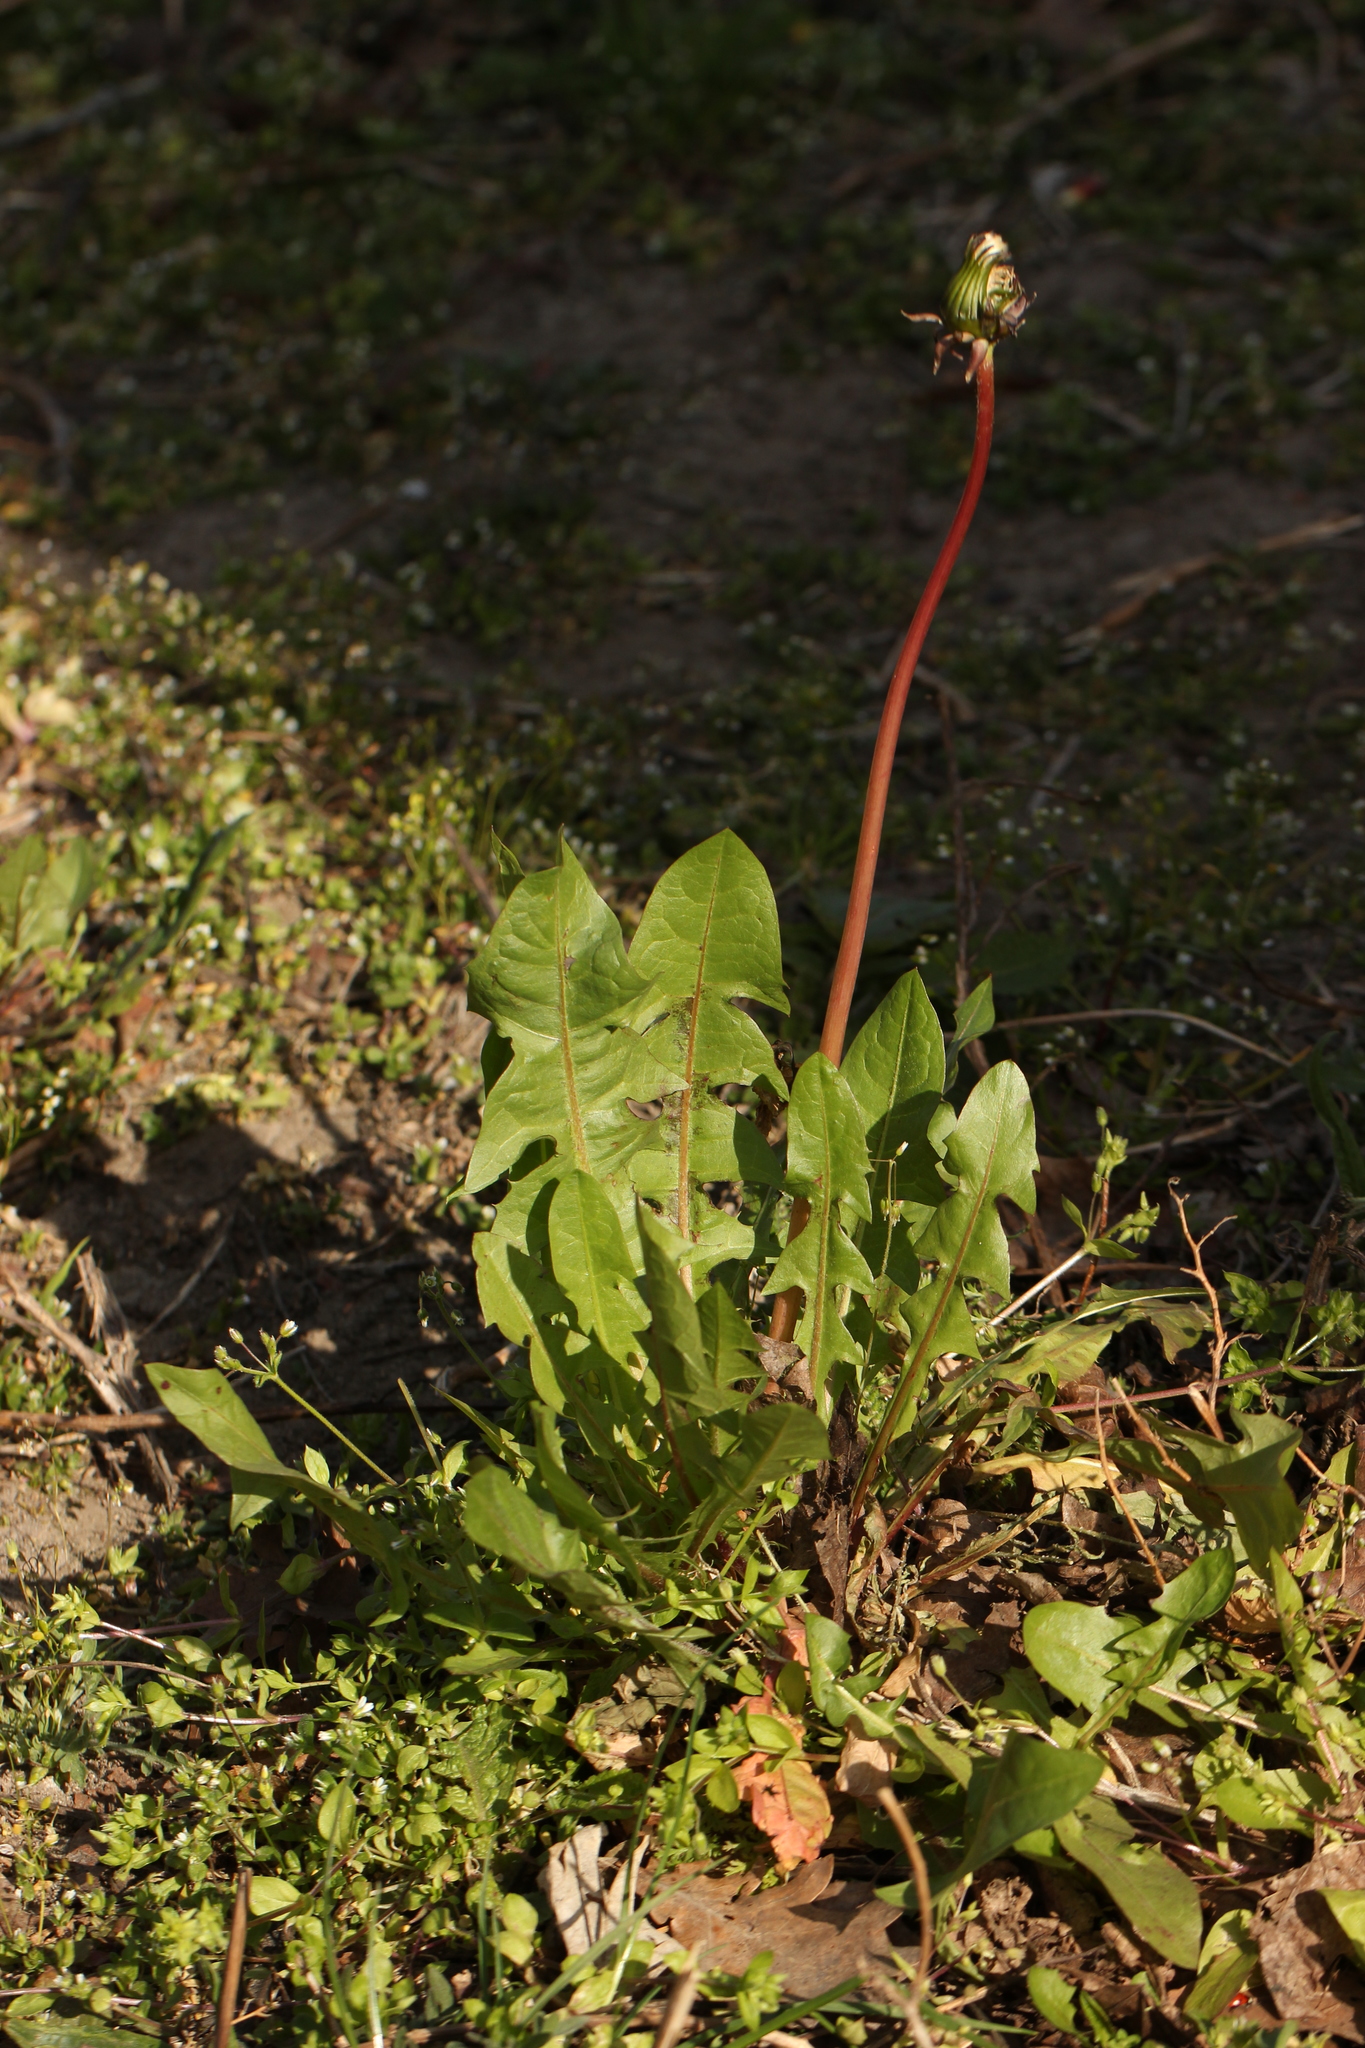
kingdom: Plantae
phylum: Tracheophyta
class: Magnoliopsida
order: Asterales
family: Asteraceae
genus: Taraxacum
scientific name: Taraxacum officinale
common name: Common dandelion
